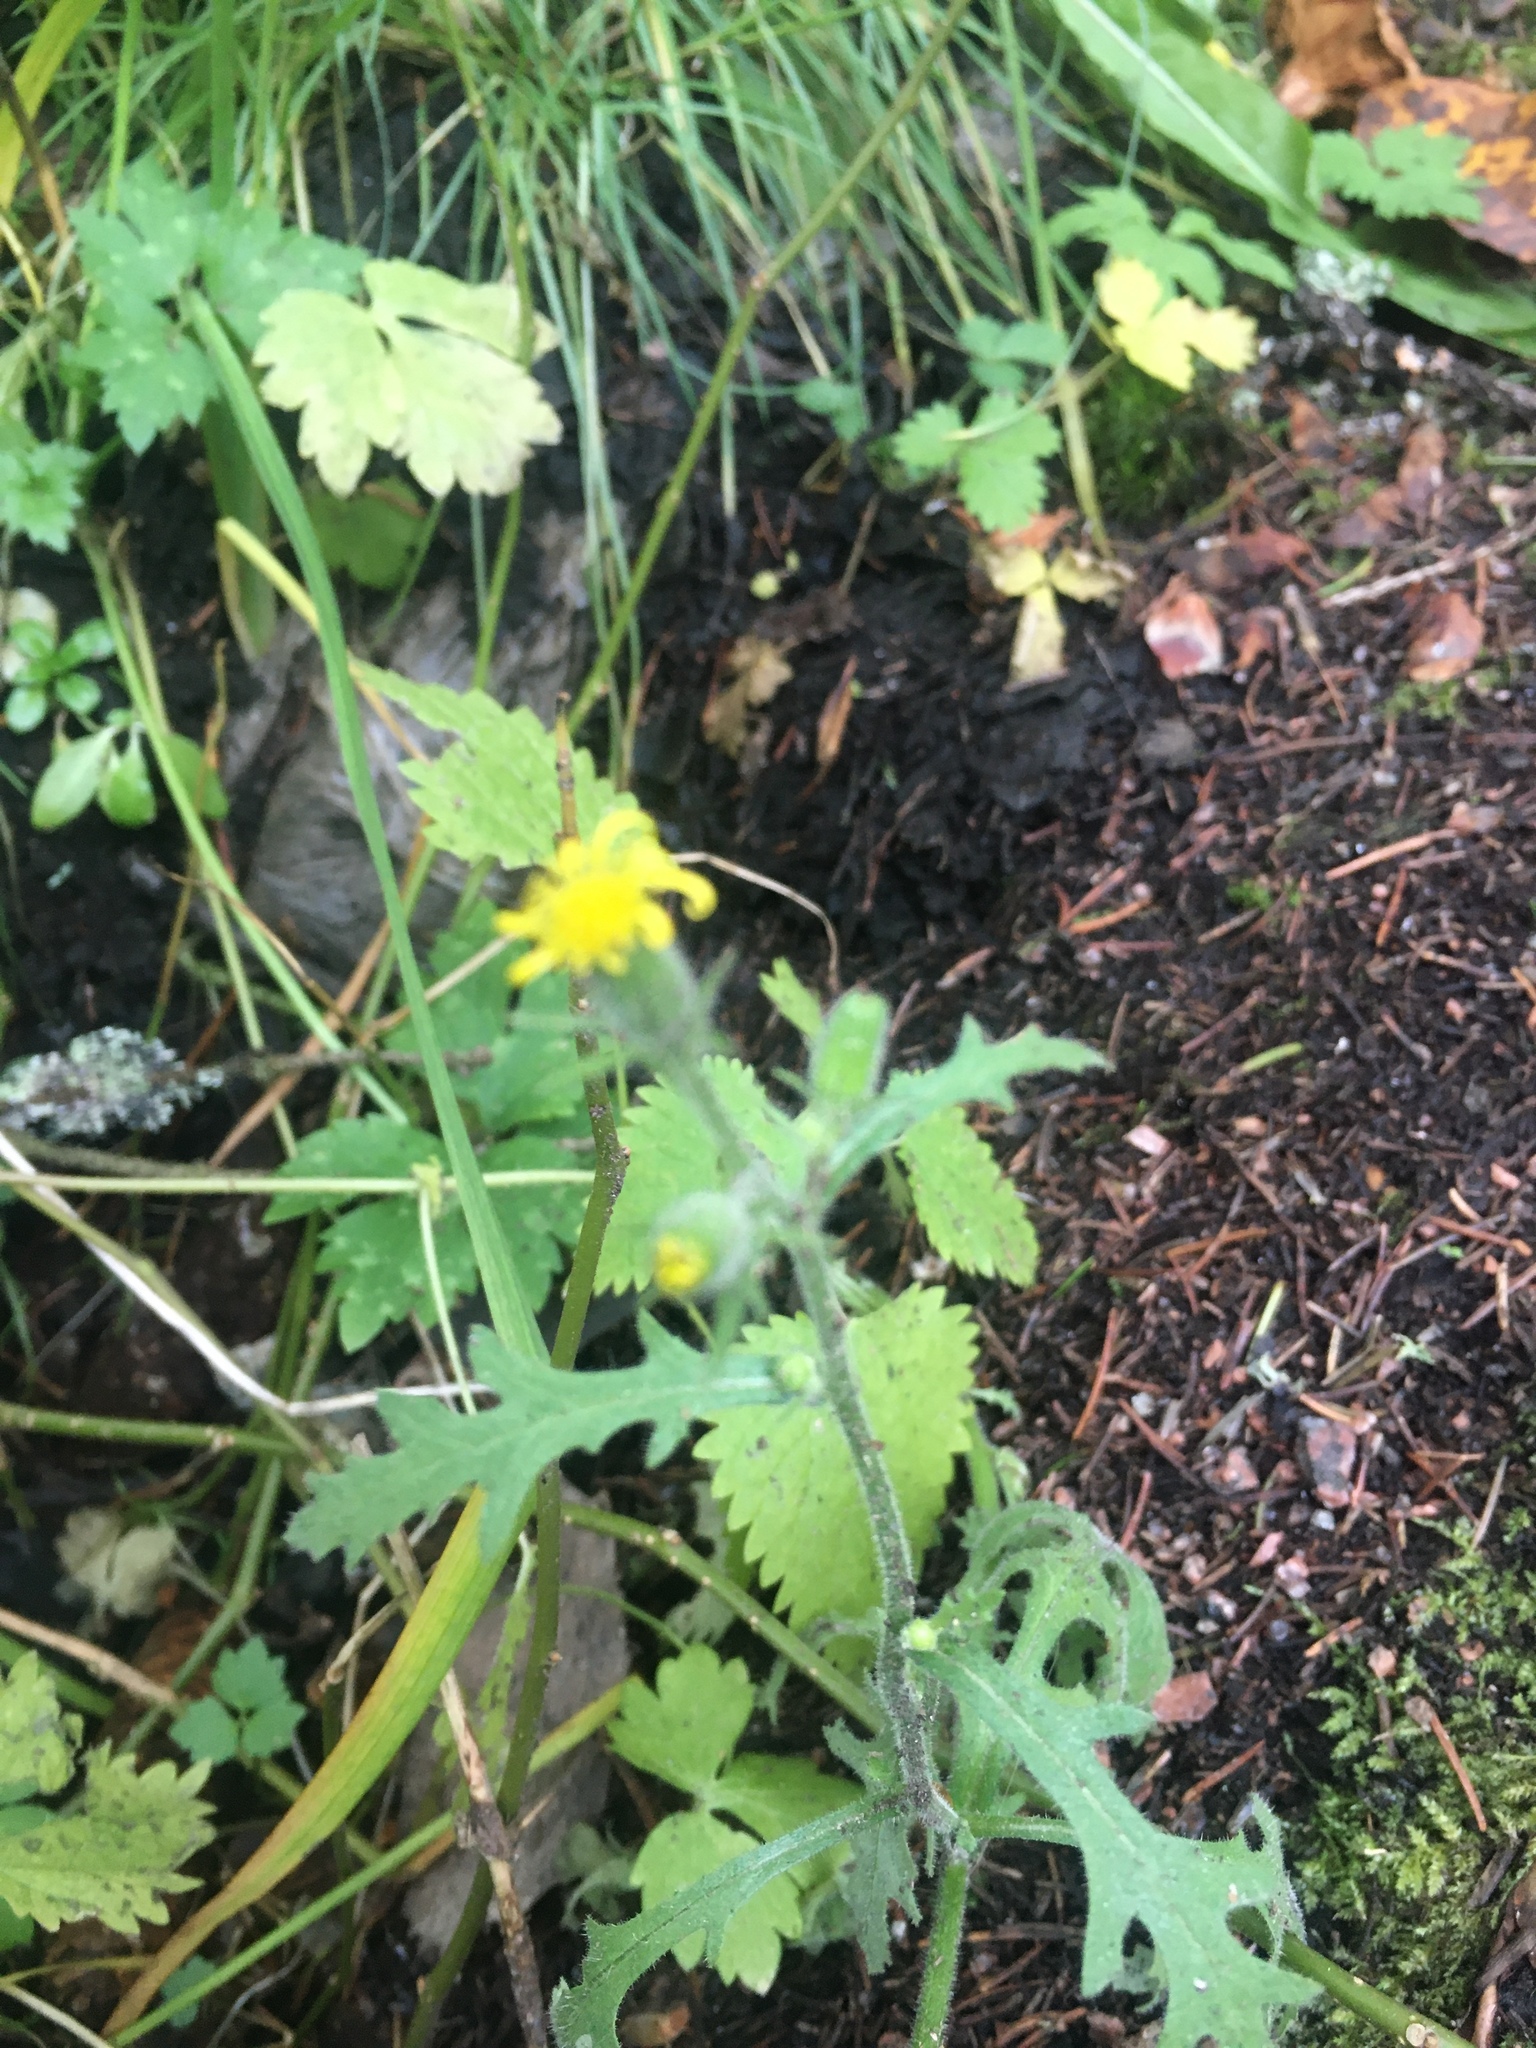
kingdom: Plantae
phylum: Tracheophyta
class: Magnoliopsida
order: Asterales
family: Asteraceae
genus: Senecio
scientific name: Senecio viscosus
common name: Sticky groundsel
